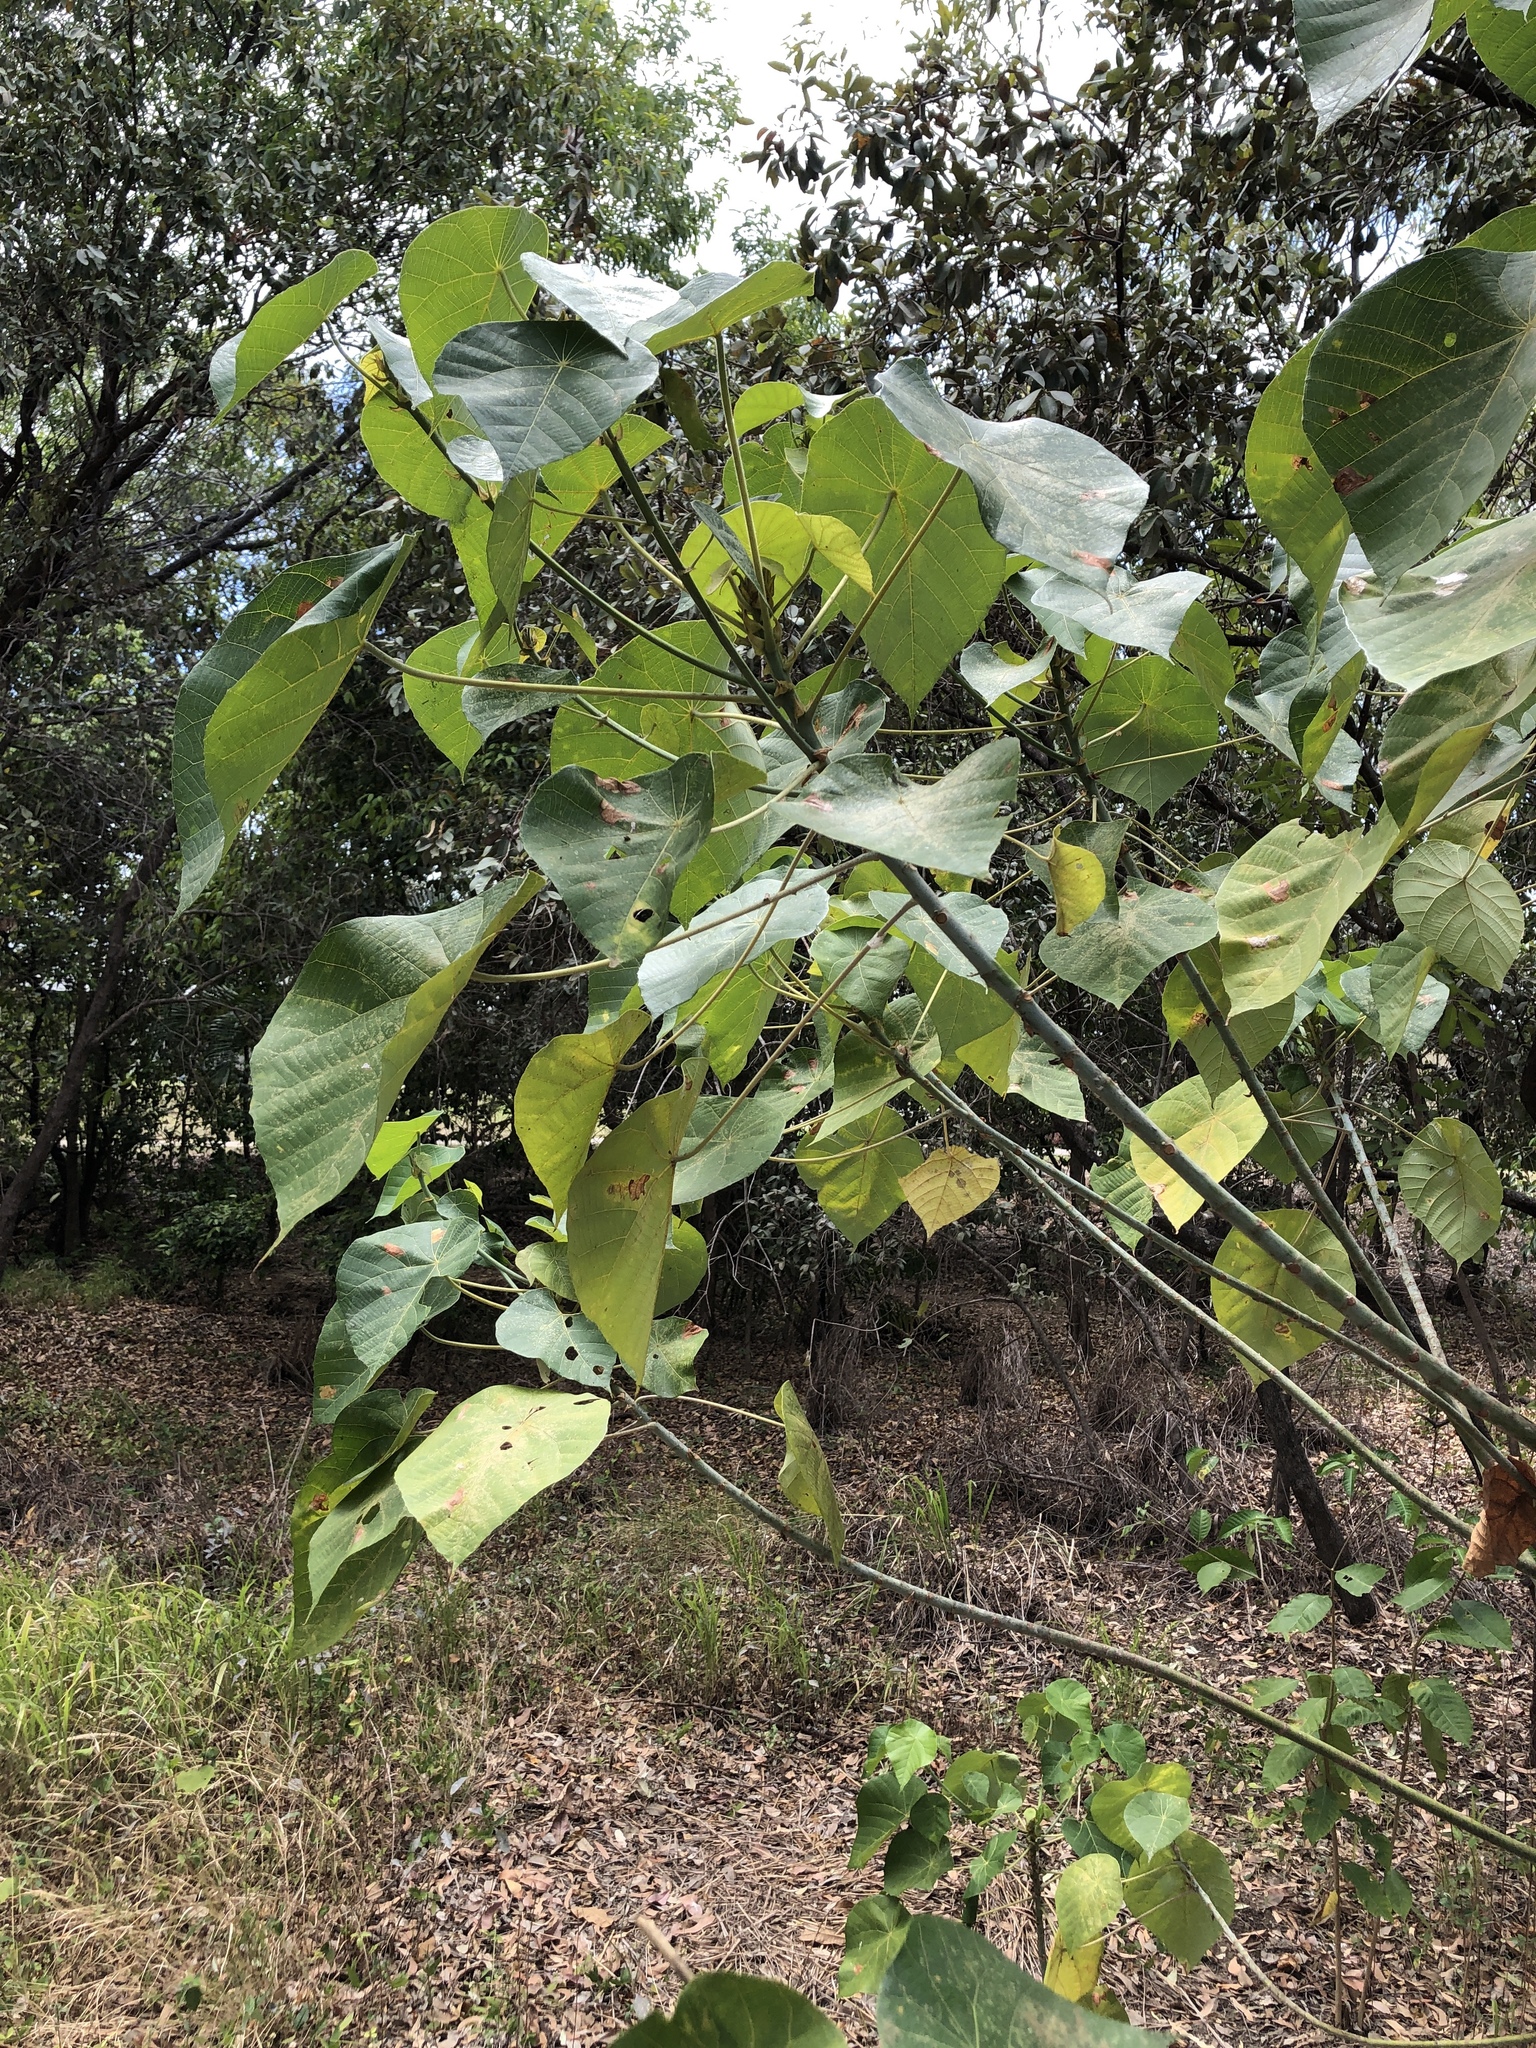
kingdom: Plantae
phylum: Tracheophyta
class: Magnoliopsida
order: Malpighiales
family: Euphorbiaceae
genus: Macaranga
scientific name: Macaranga tanarius
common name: Parasol leaf tree
